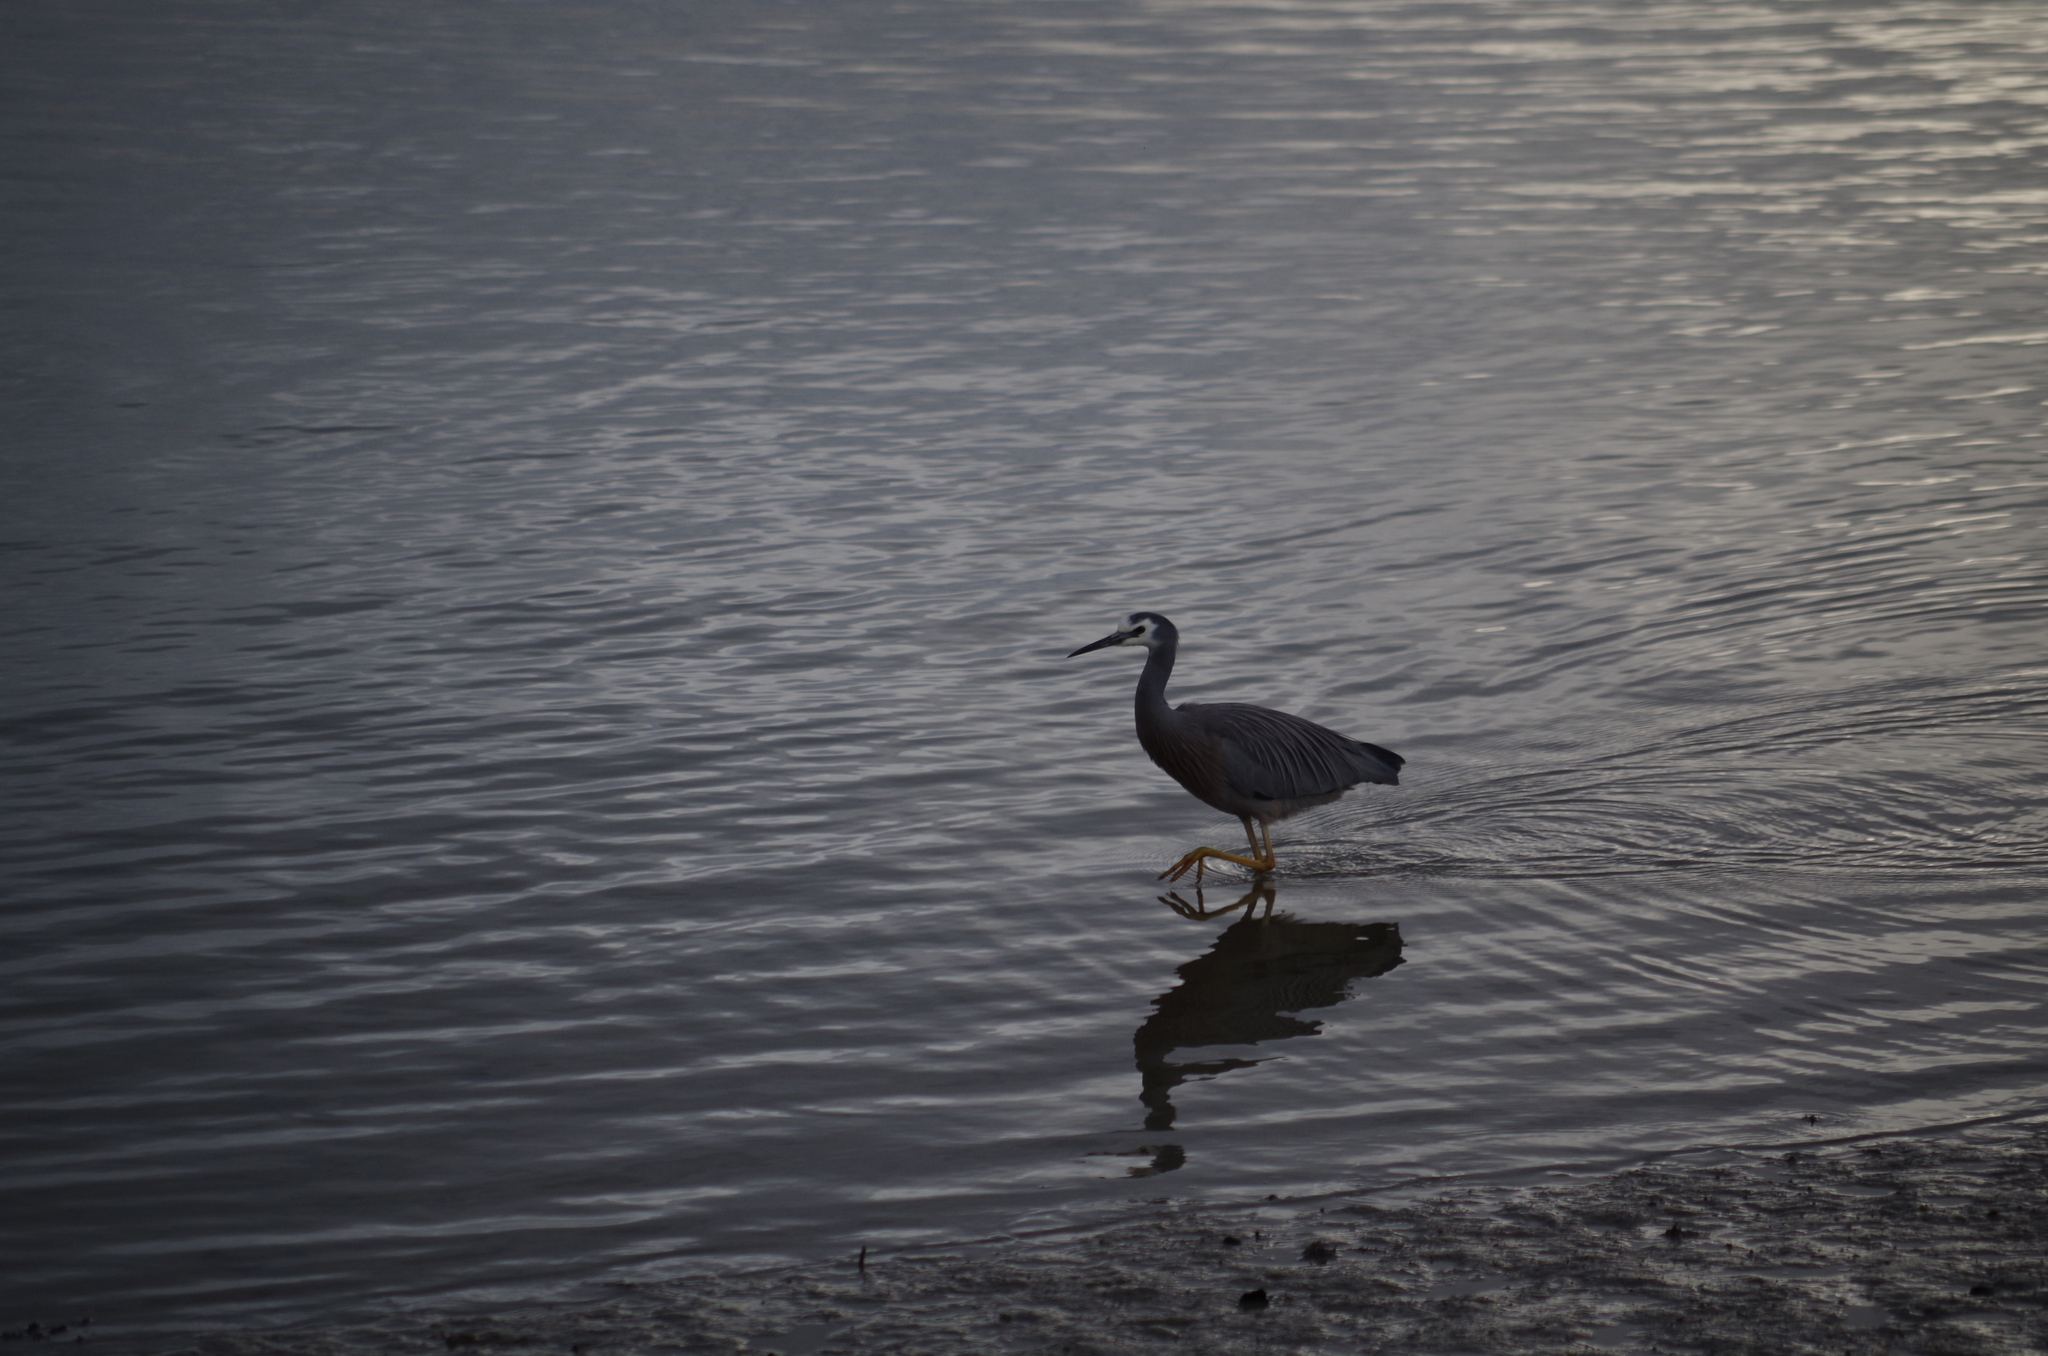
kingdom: Animalia
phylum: Chordata
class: Aves
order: Pelecaniformes
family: Ardeidae
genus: Egretta
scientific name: Egretta novaehollandiae
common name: White-faced heron
